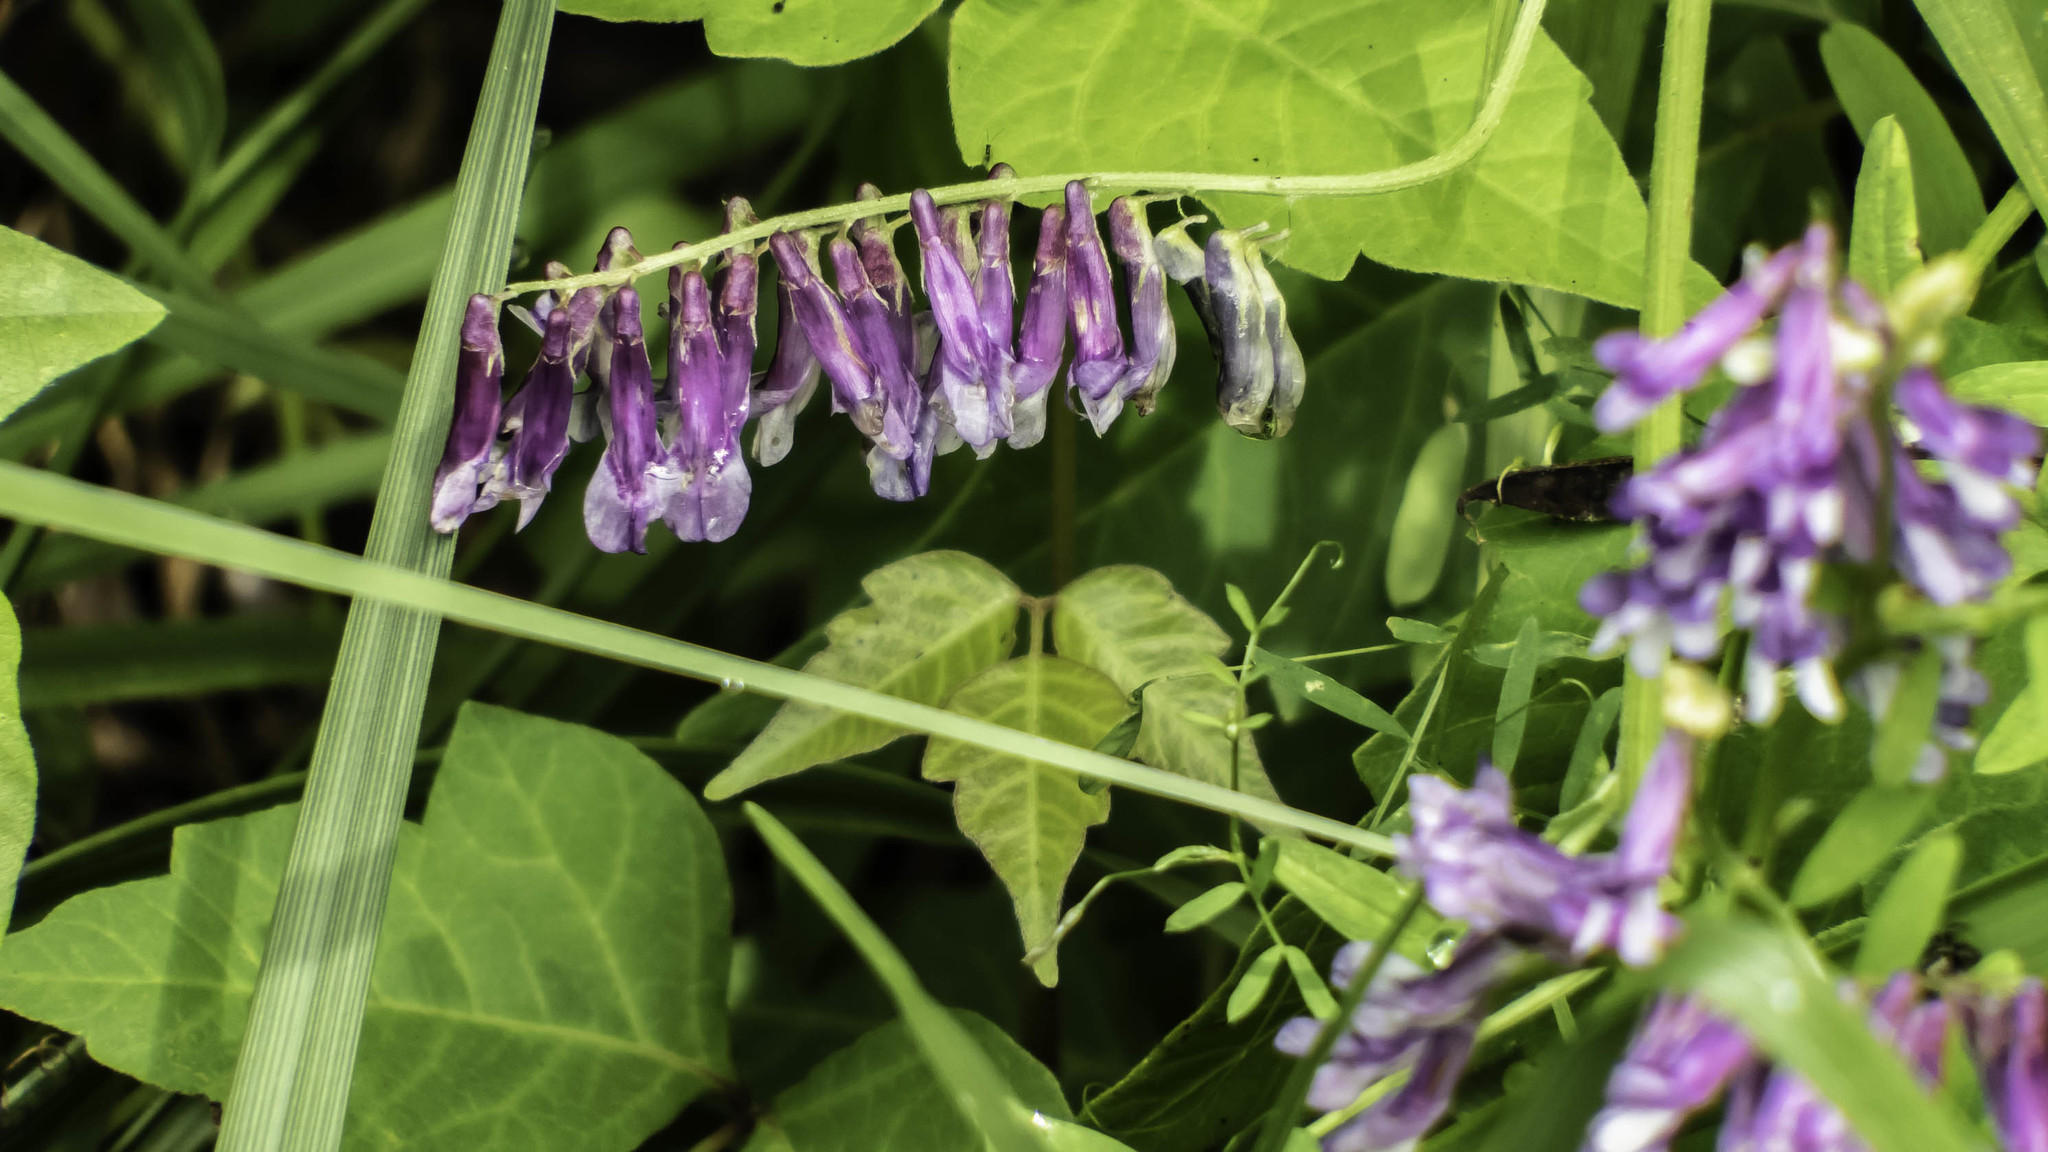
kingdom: Plantae
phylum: Tracheophyta
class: Magnoliopsida
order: Fabales
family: Fabaceae
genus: Vicia
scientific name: Vicia villosa
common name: Fodder vetch
